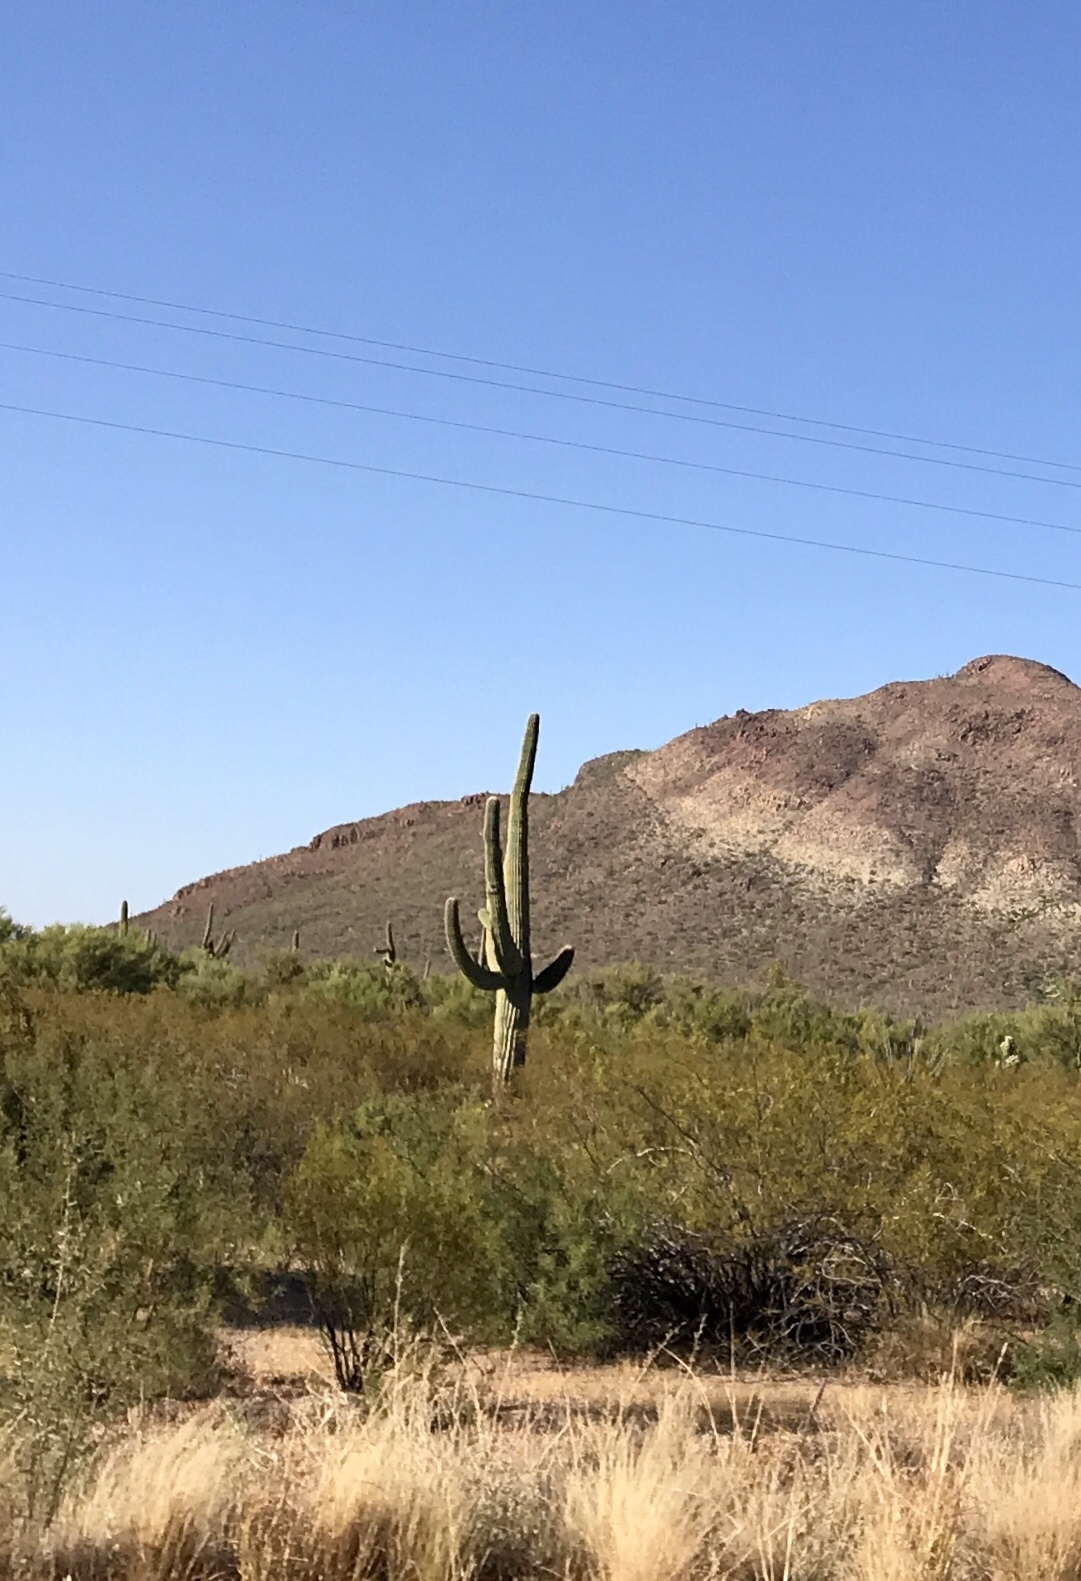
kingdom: Plantae
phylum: Tracheophyta
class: Magnoliopsida
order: Caryophyllales
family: Cactaceae
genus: Carnegiea
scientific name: Carnegiea gigantea
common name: Saguaro
